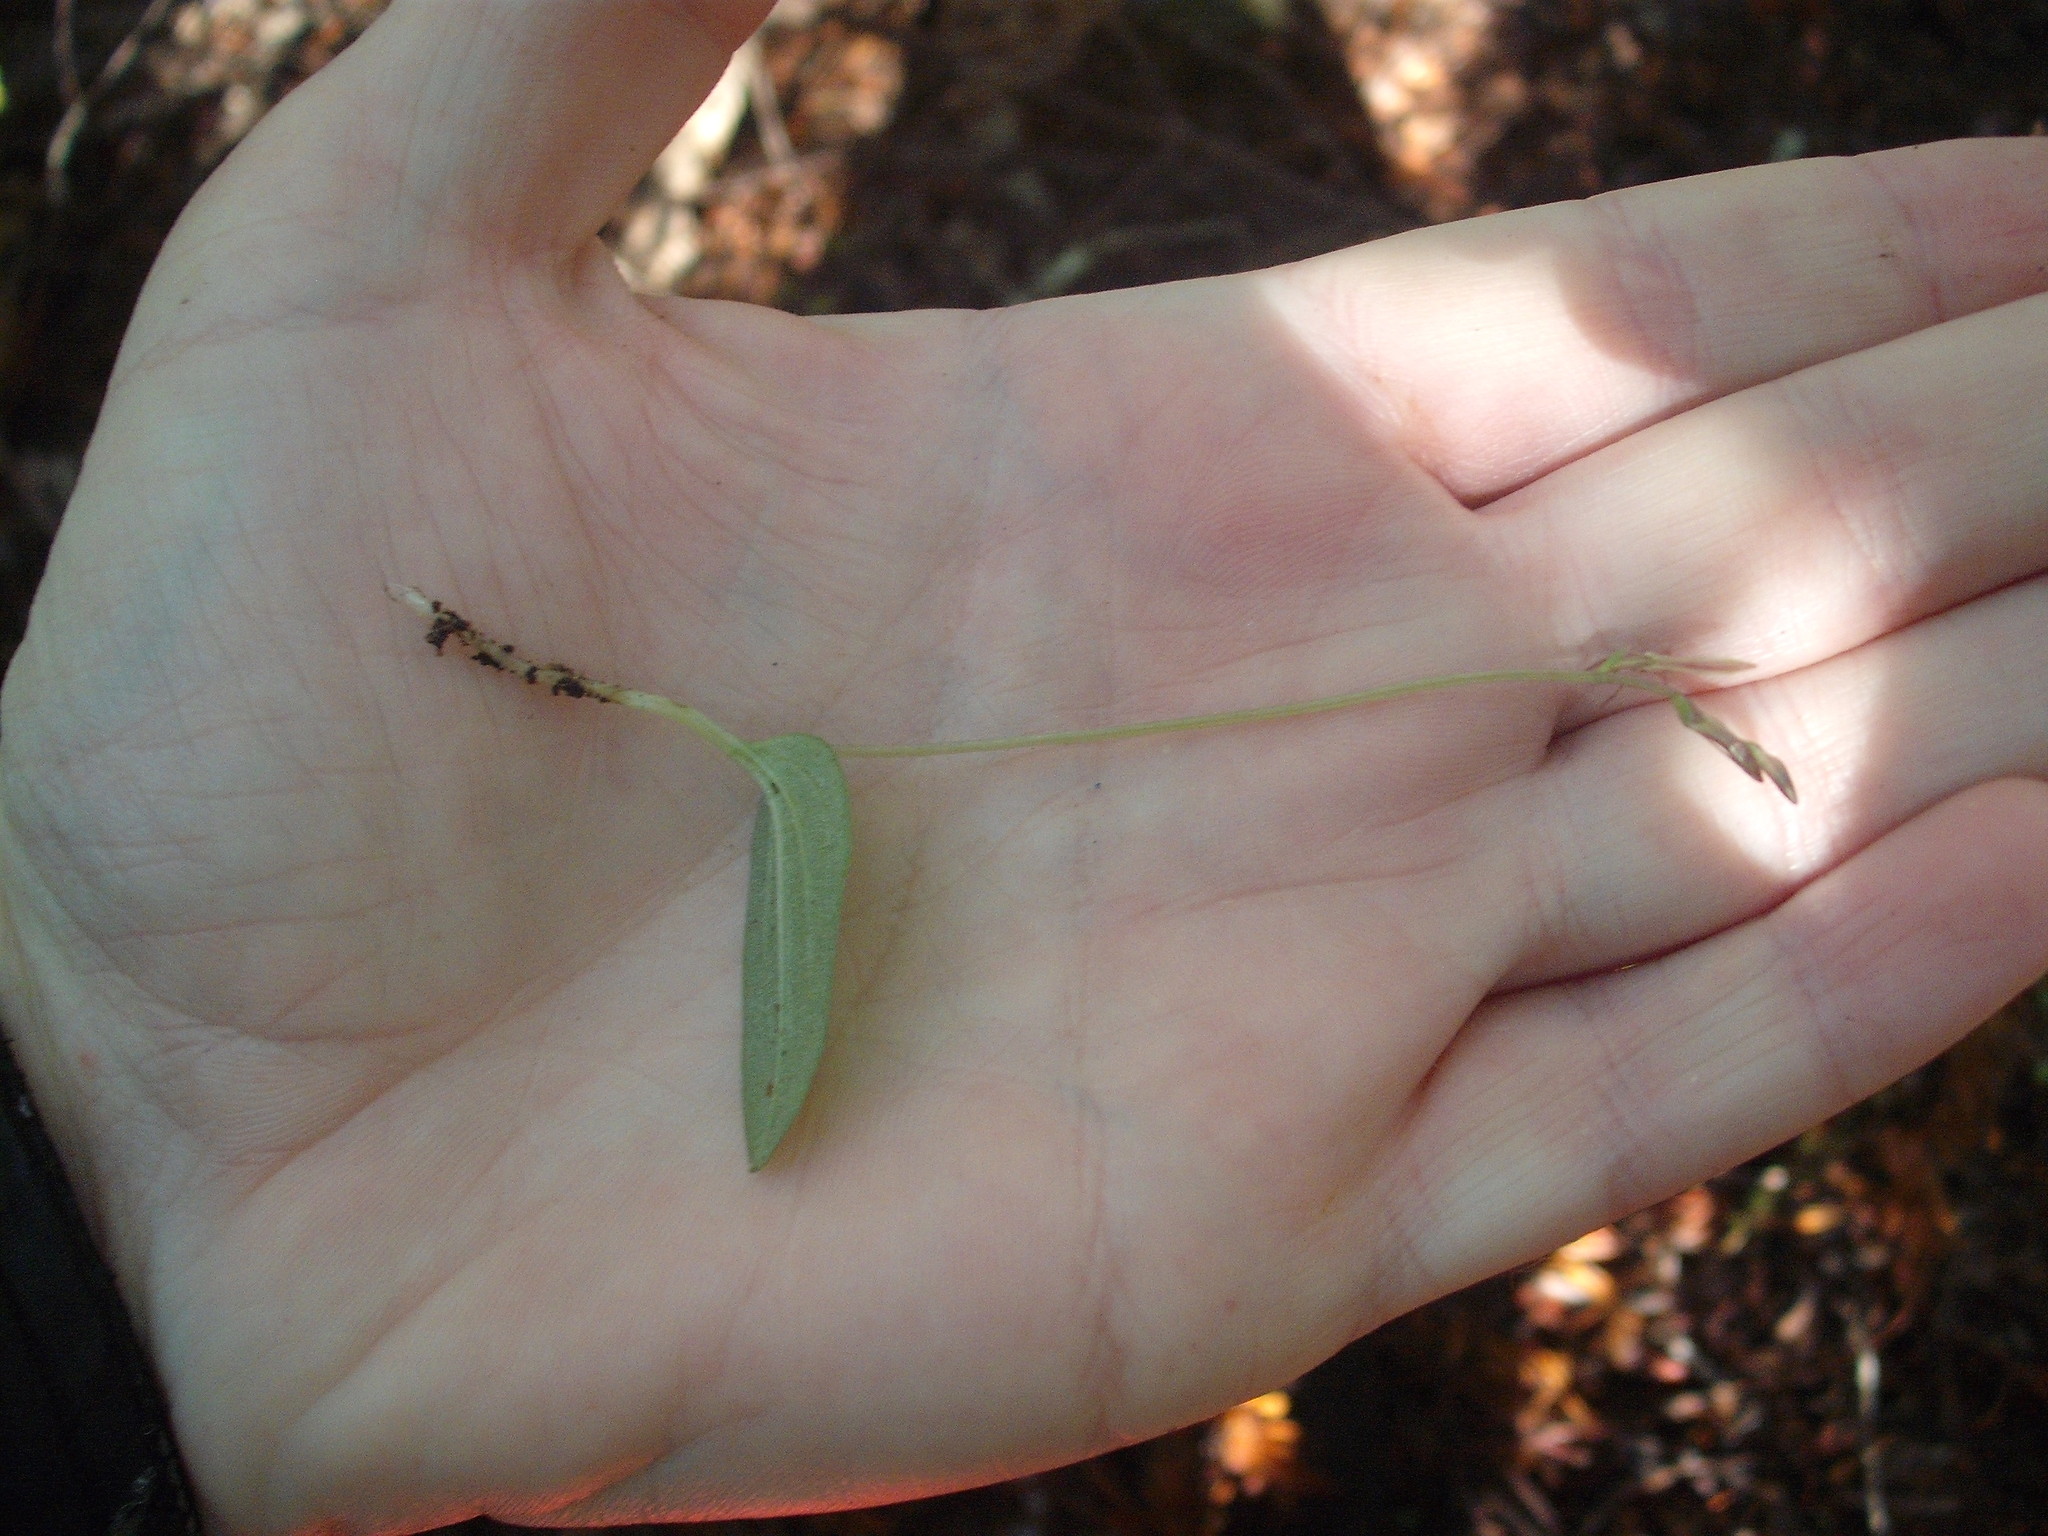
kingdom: Plantae
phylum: Tracheophyta
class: Liliopsida
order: Asparagales
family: Orchidaceae
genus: Cyrtostylis
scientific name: Cyrtostylis oblonga
